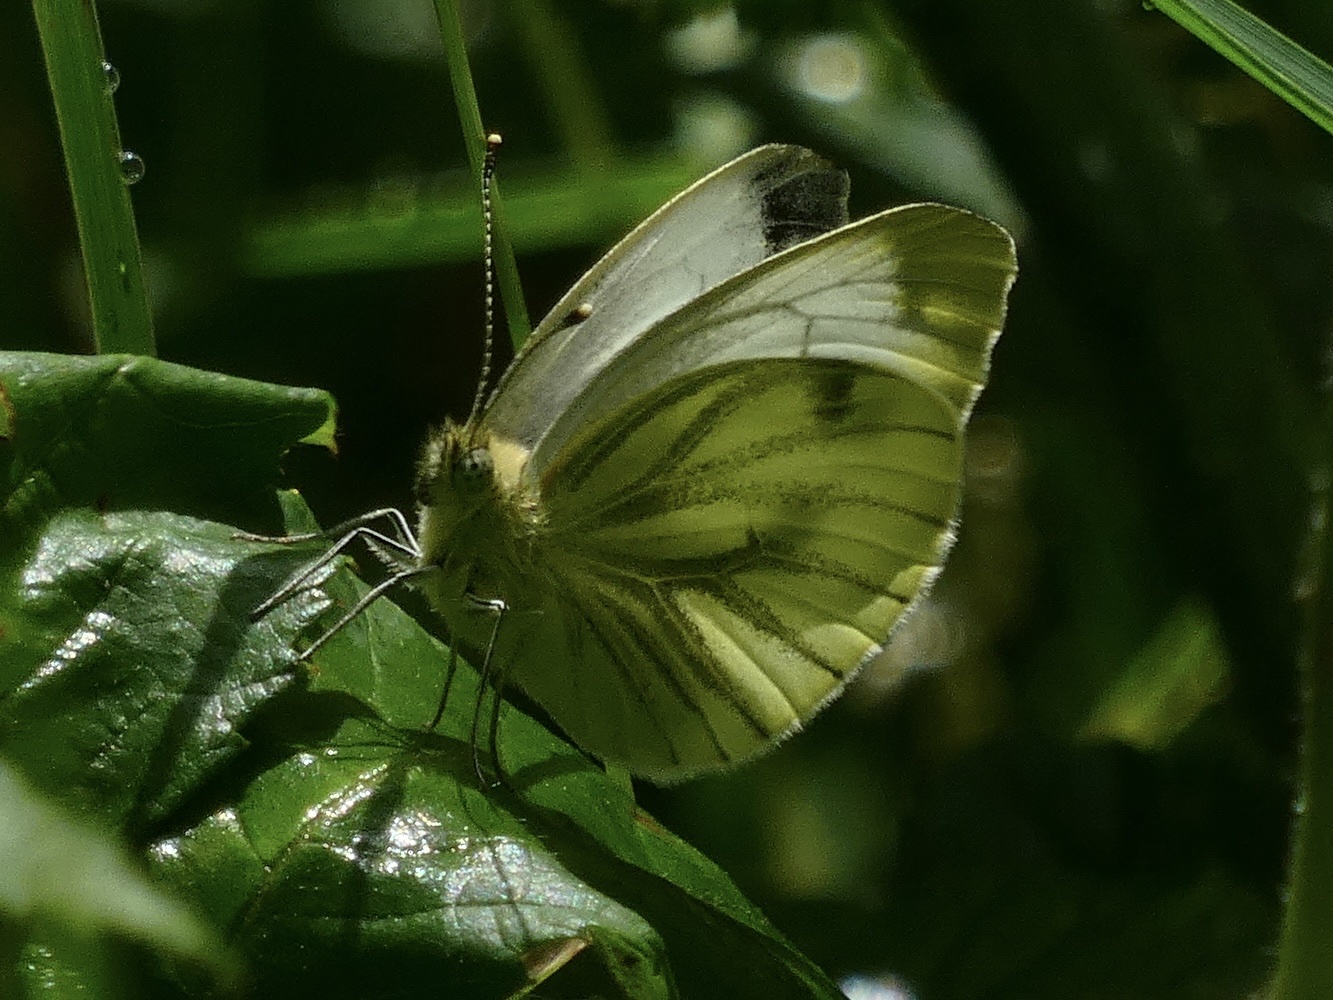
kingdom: Animalia
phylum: Arthropoda
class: Insecta
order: Lepidoptera
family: Pieridae
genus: Pieris
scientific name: Pieris napi
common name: Green-veined white
